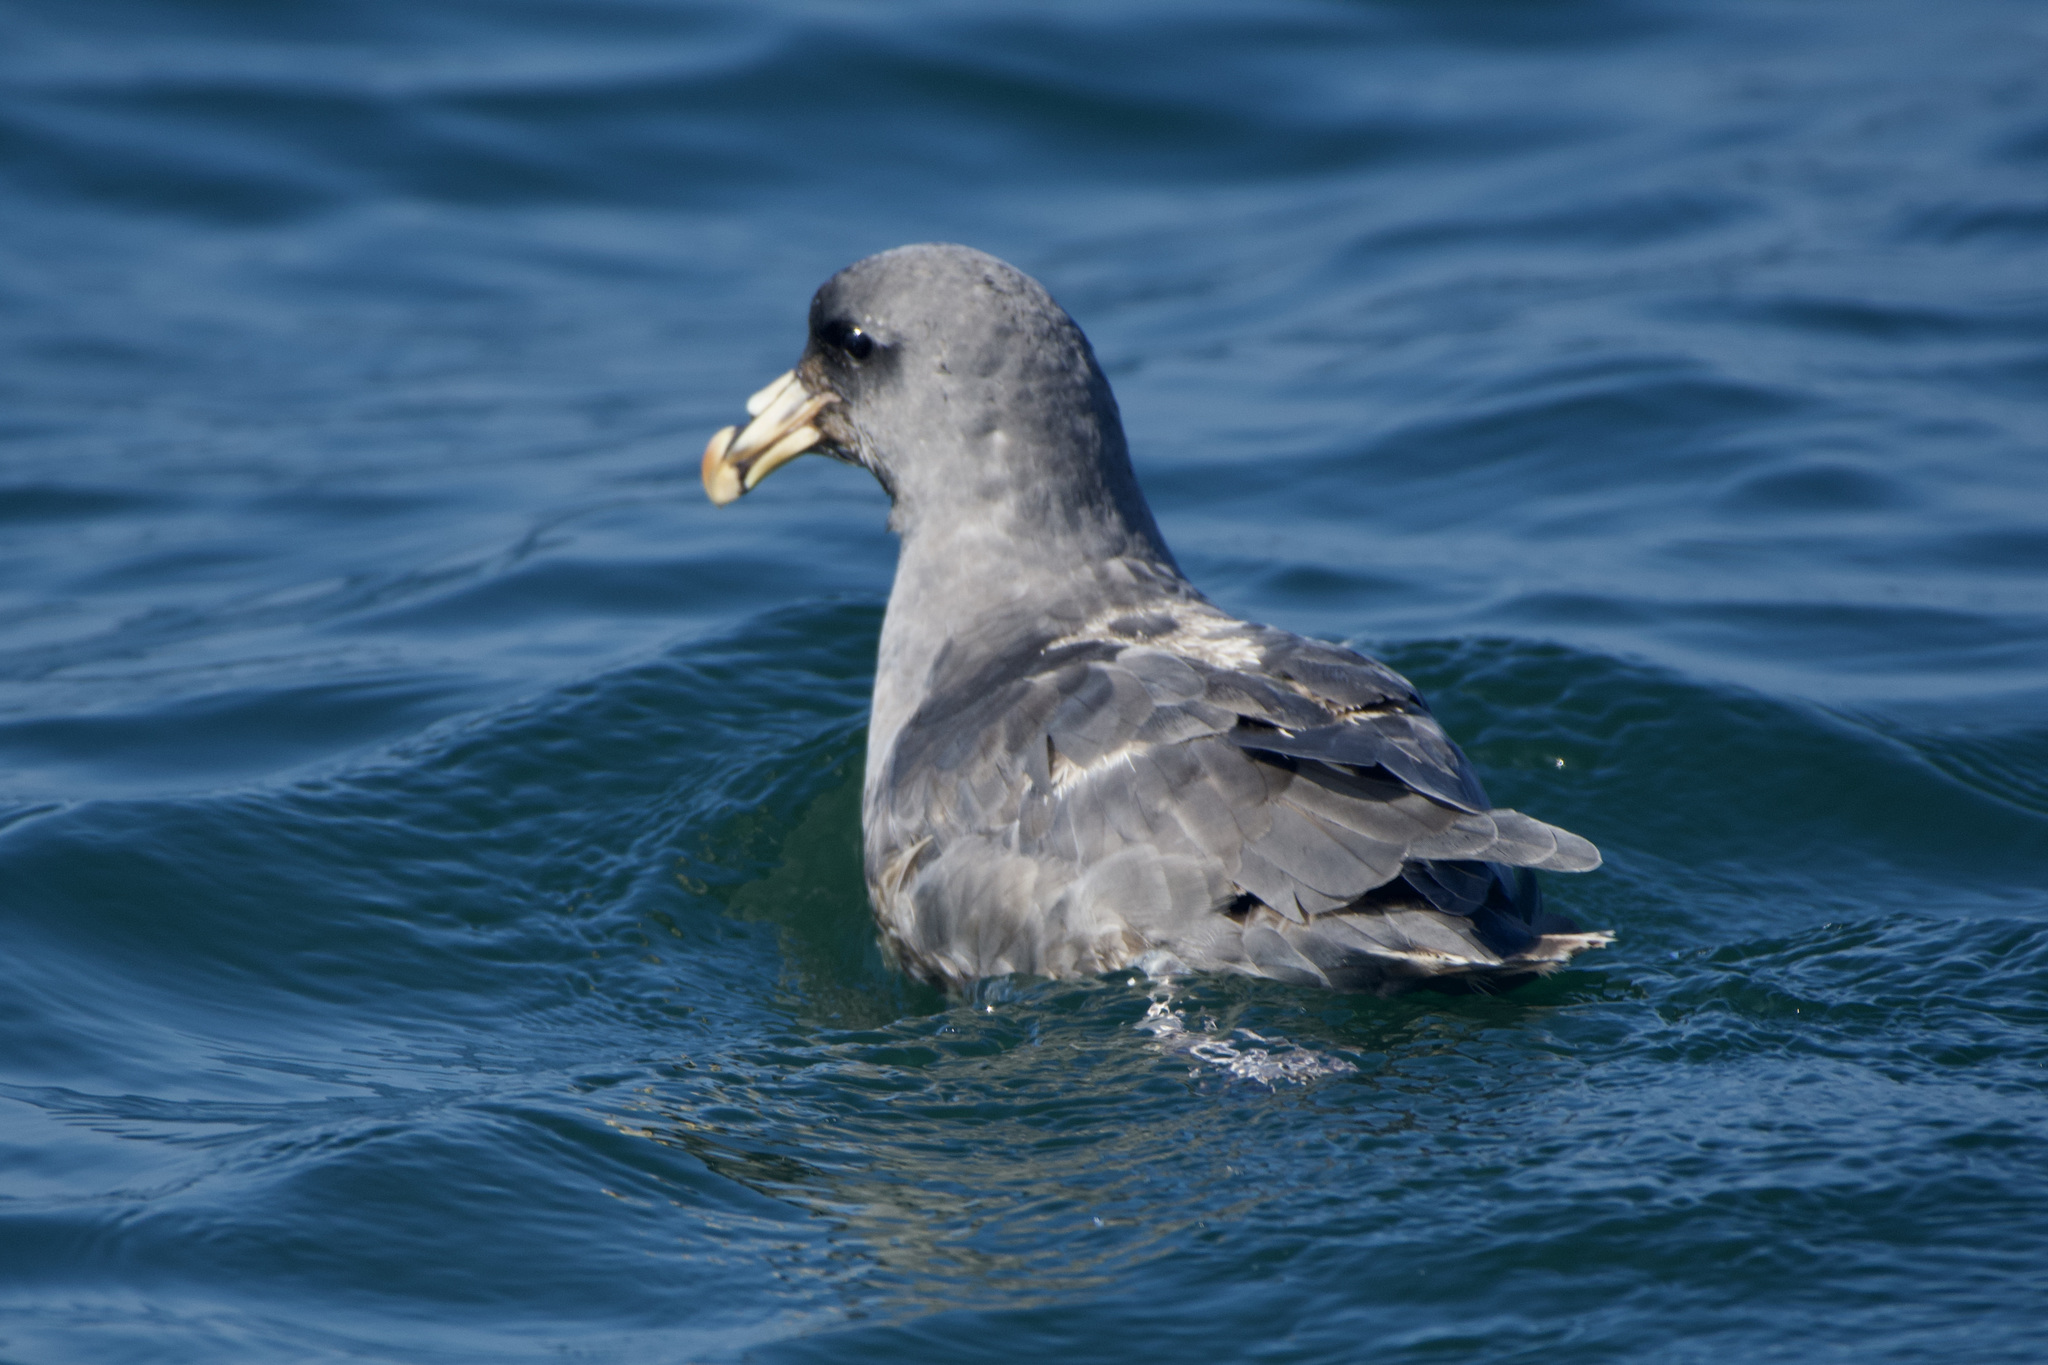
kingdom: Animalia
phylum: Chordata
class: Aves
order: Procellariiformes
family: Procellariidae
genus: Fulmarus
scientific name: Fulmarus glacialis
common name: Northern fulmar
